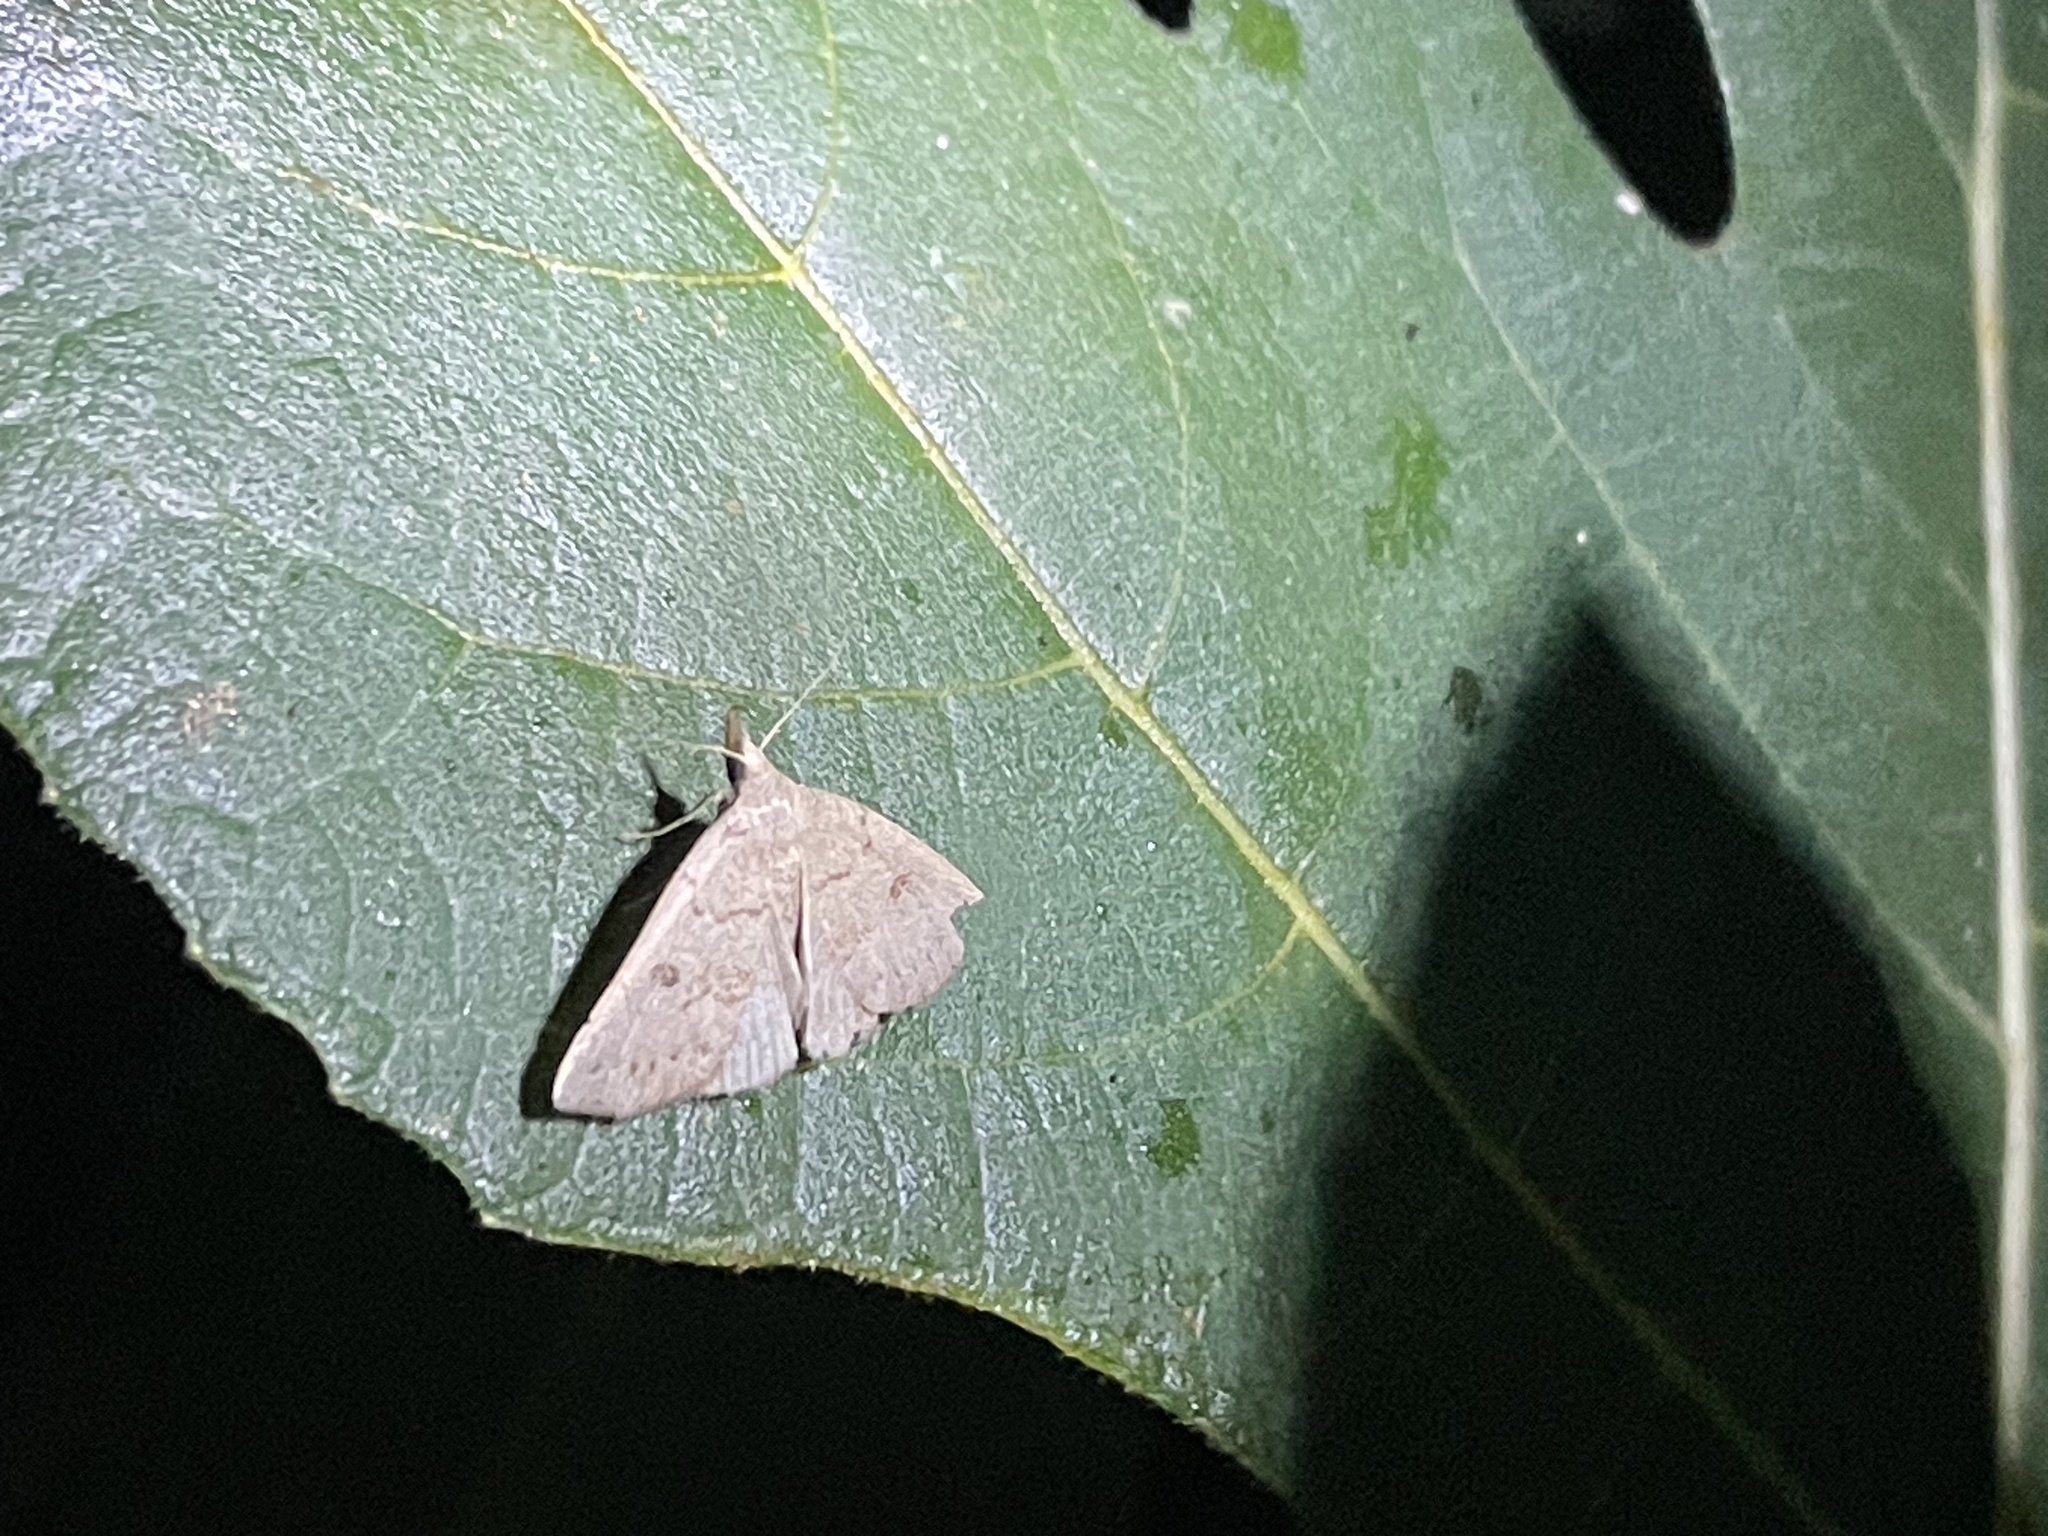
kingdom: Animalia
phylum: Arthropoda
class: Insecta
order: Lepidoptera
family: Erebidae
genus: Macrochilo
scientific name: Macrochilo morbidalis
